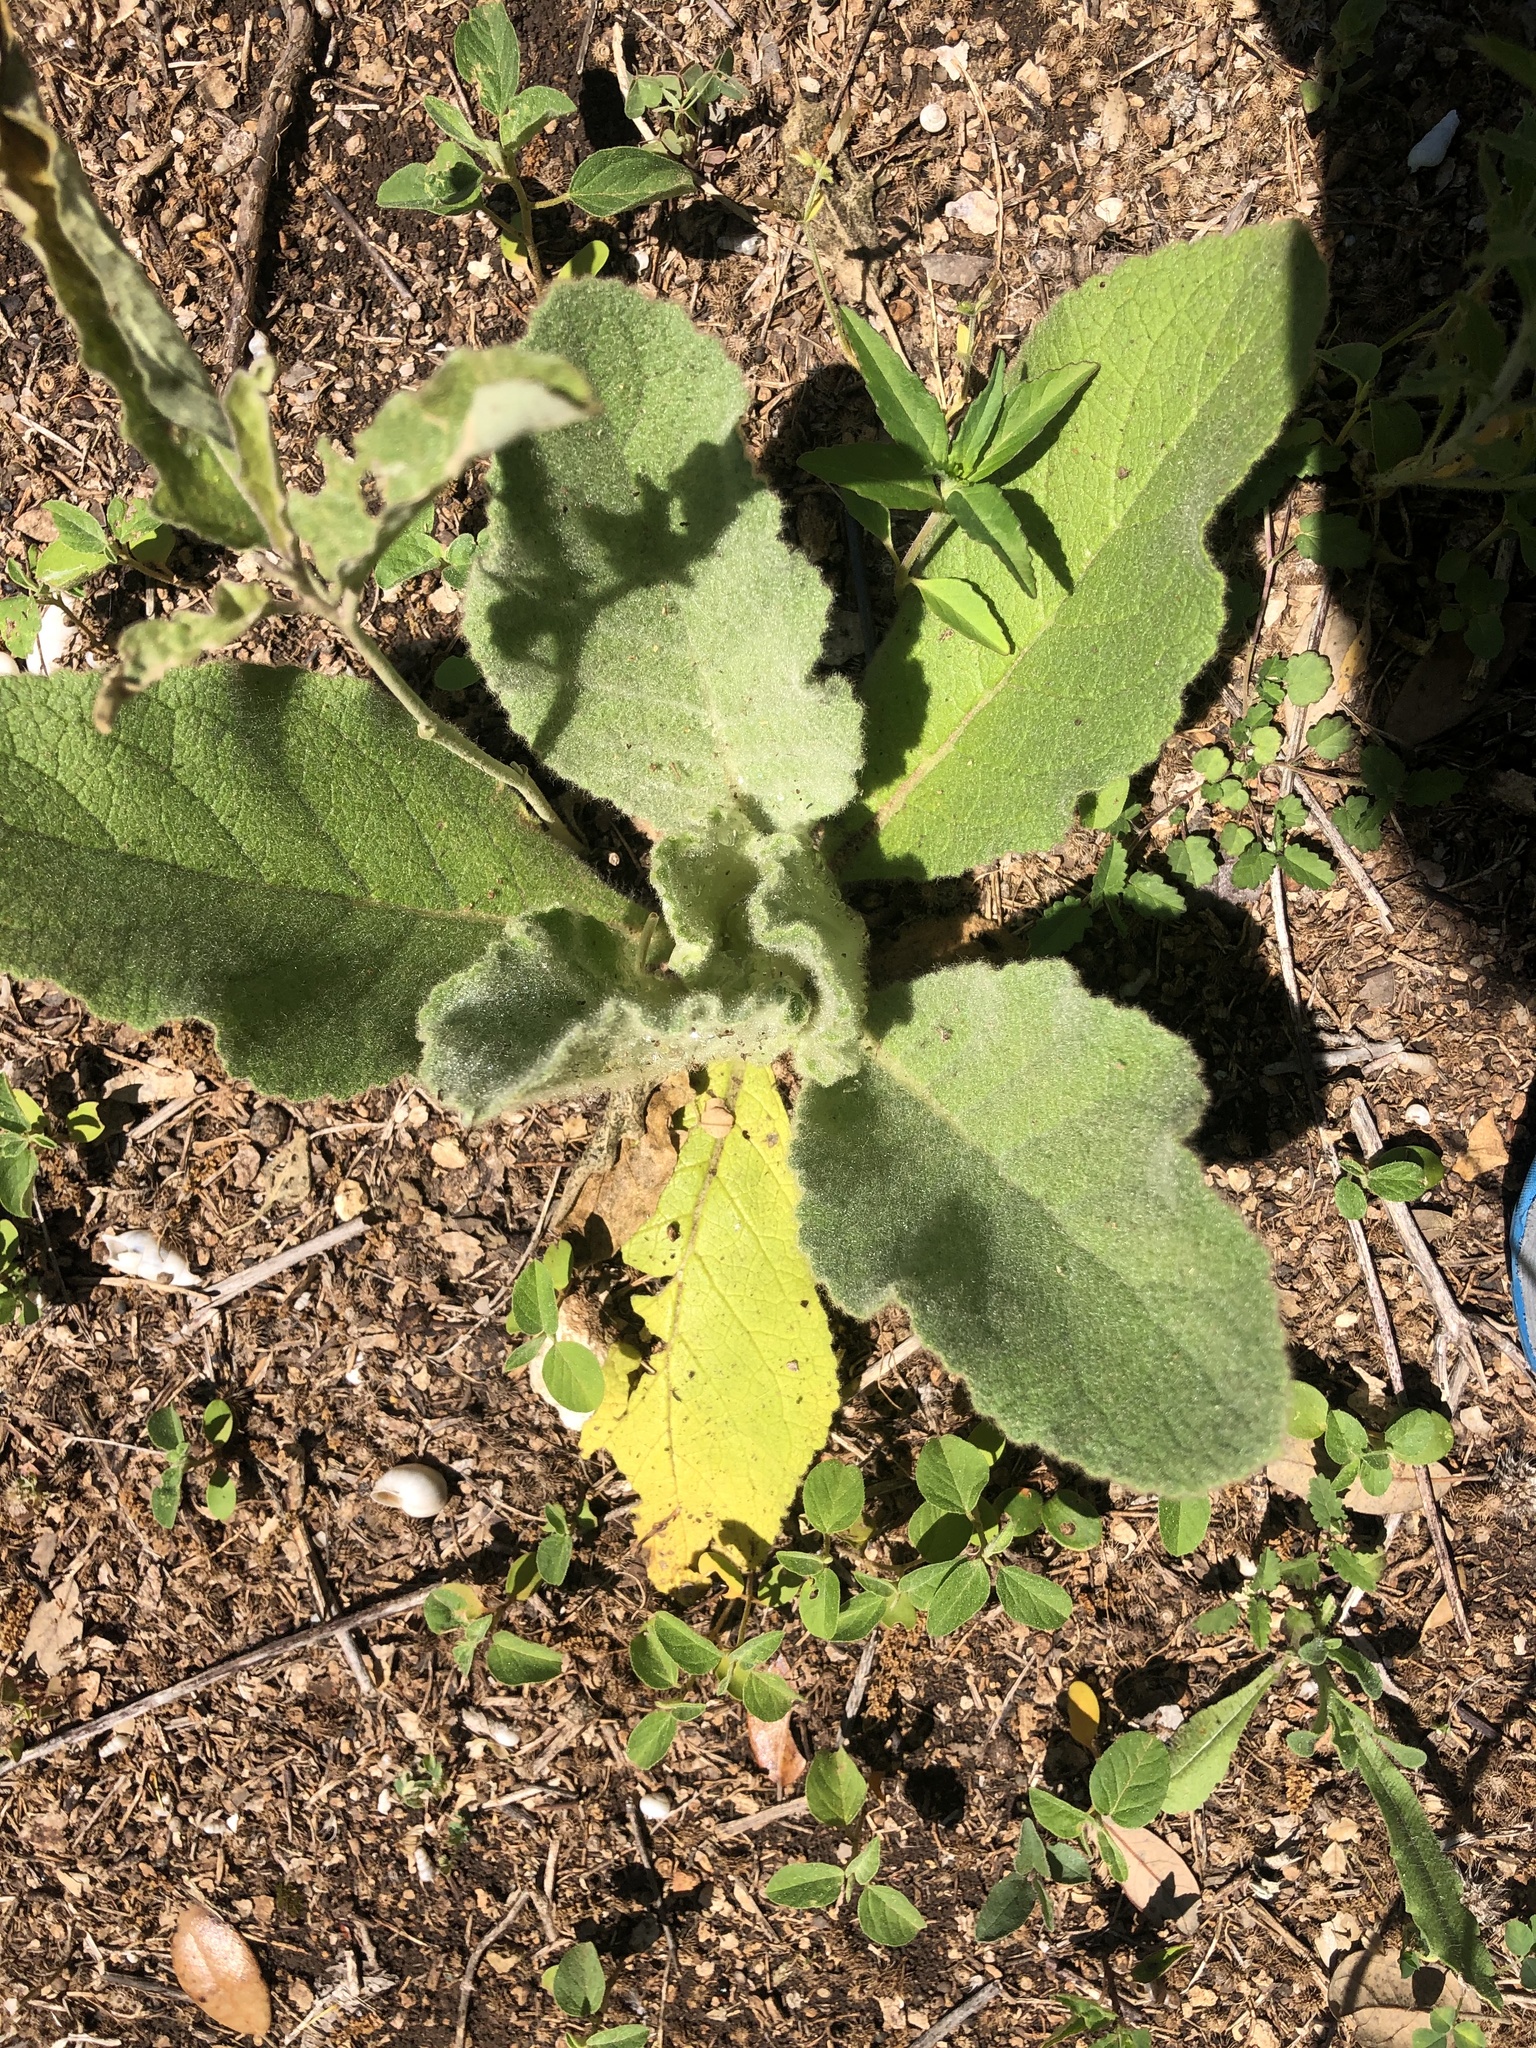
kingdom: Plantae
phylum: Tracheophyta
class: Magnoliopsida
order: Lamiales
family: Scrophulariaceae
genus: Verbascum
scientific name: Verbascum thapsus
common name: Common mullein
